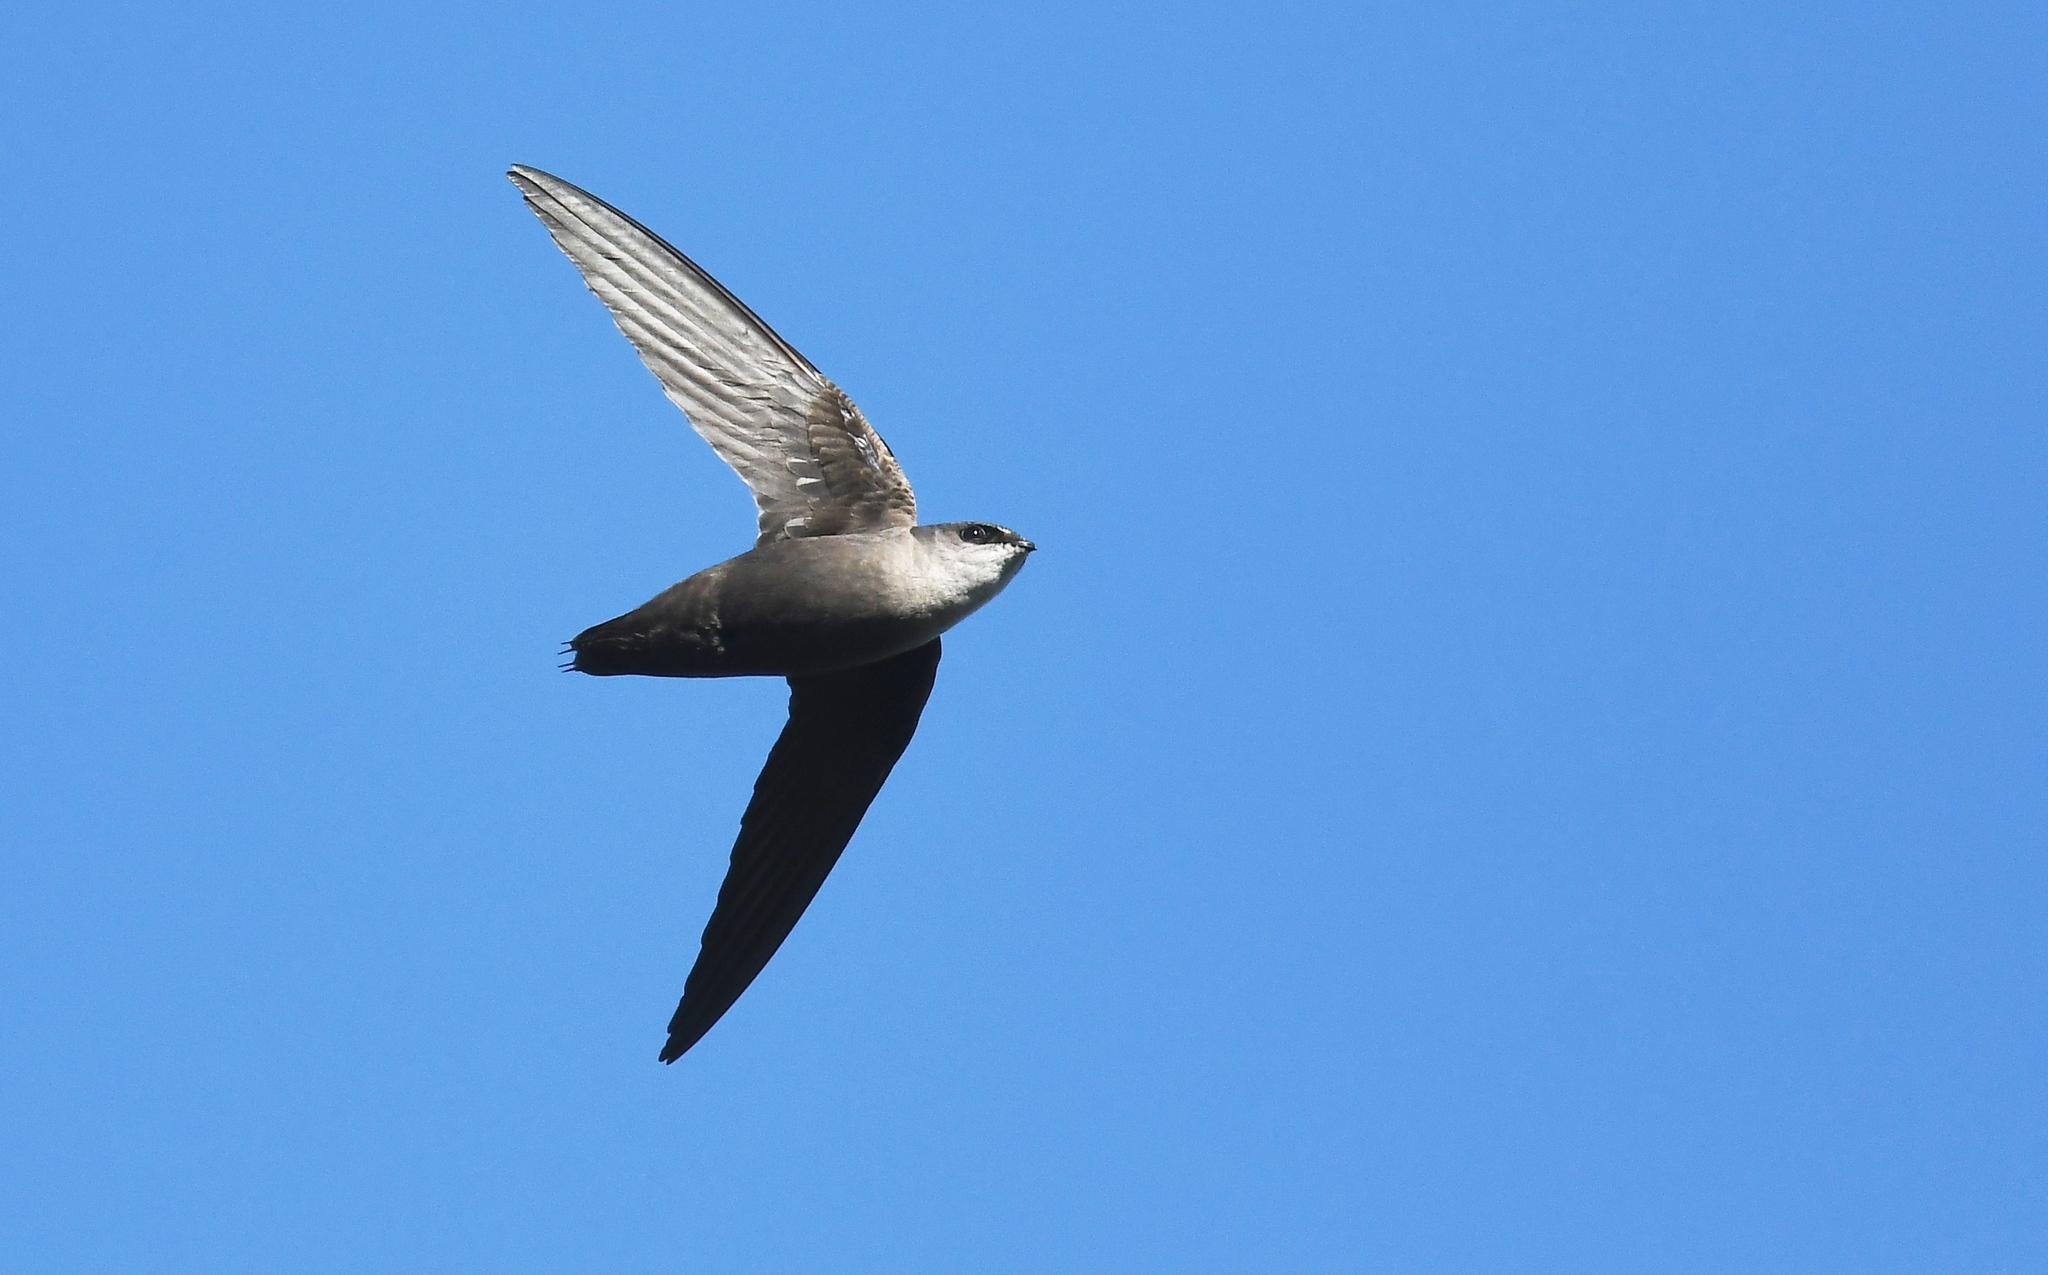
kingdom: Animalia
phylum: Chordata
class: Aves
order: Apodiformes
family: Apodidae
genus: Chaetura
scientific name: Chaetura pelagica
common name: Chimney swift
